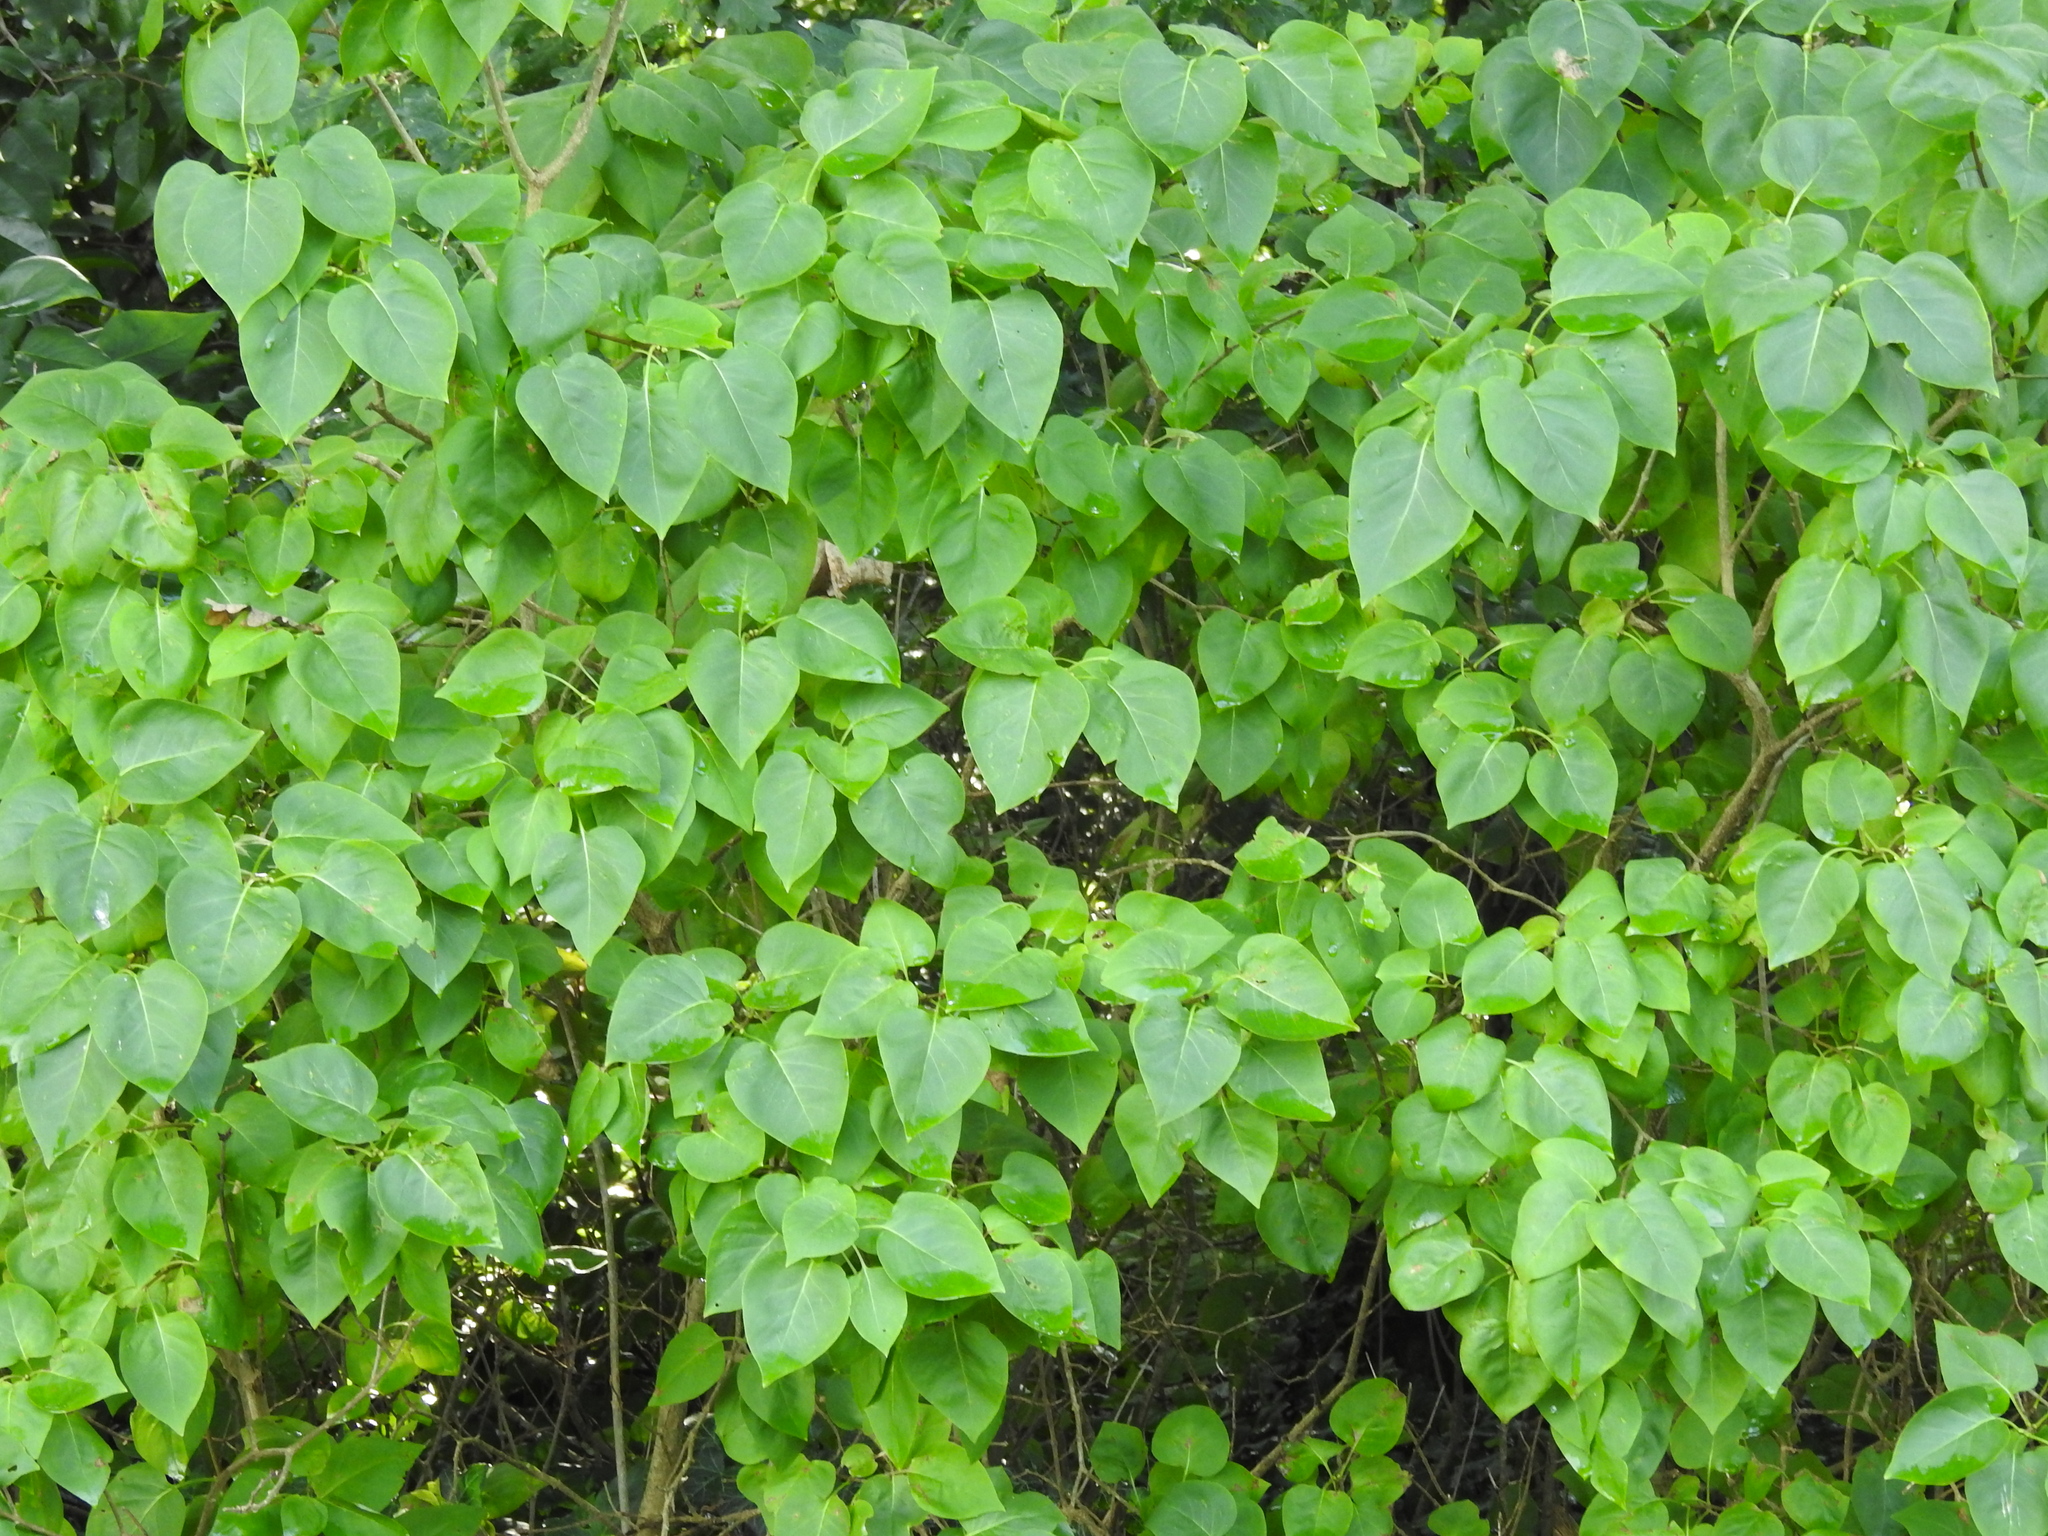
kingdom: Plantae
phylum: Tracheophyta
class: Magnoliopsida
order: Lamiales
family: Oleaceae
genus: Syringa
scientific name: Syringa vulgaris
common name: Common lilac
